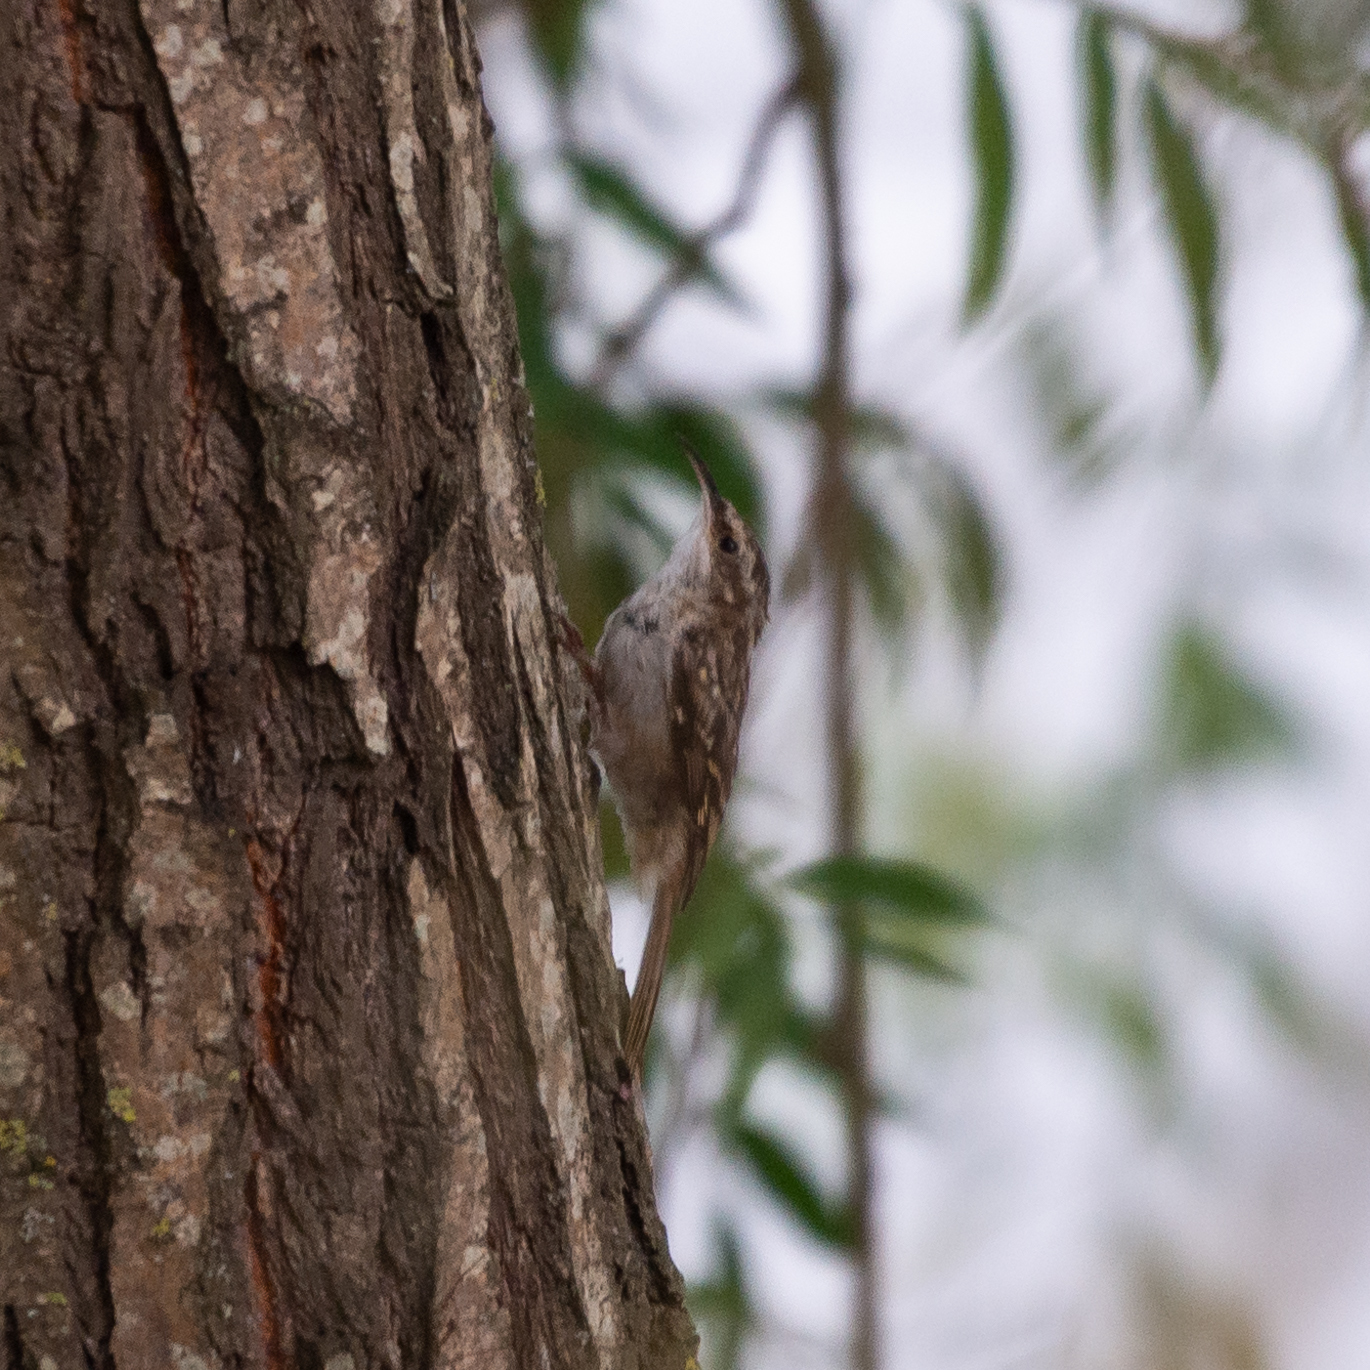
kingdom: Animalia
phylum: Chordata
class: Aves
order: Passeriformes
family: Certhiidae
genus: Certhia
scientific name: Certhia brachydactyla
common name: Short-toed treecreeper
